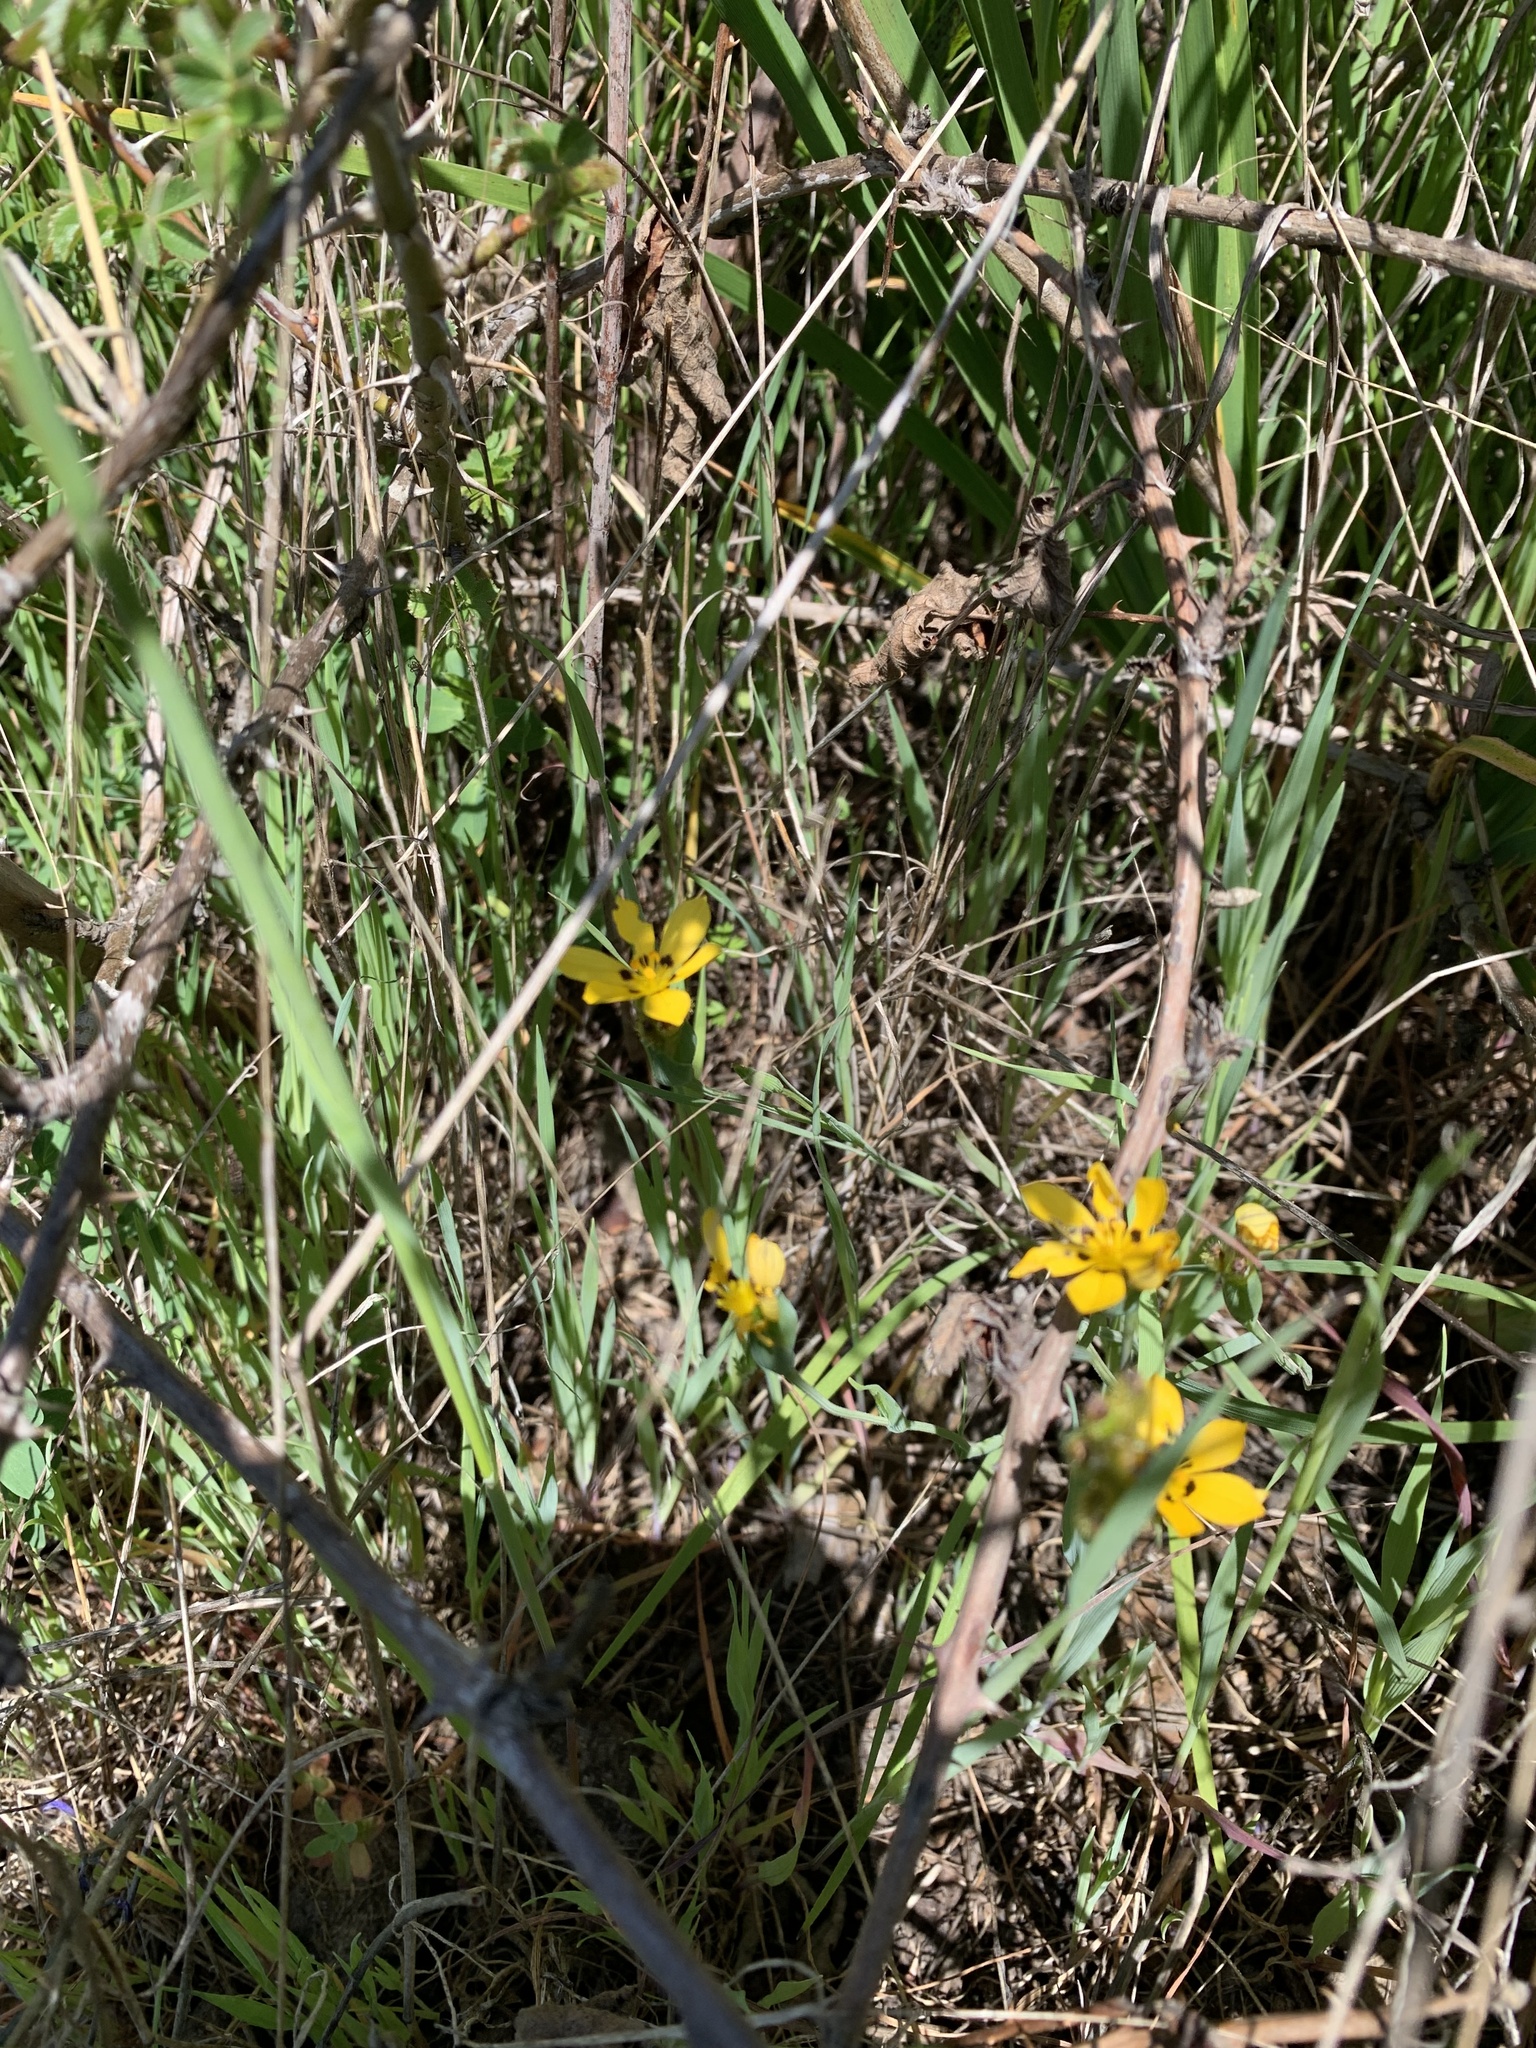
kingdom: Plantae
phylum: Tracheophyta
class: Liliopsida
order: Asparagales
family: Iridaceae
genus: Sisyrinchium
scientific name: Sisyrinchium graminifolium
